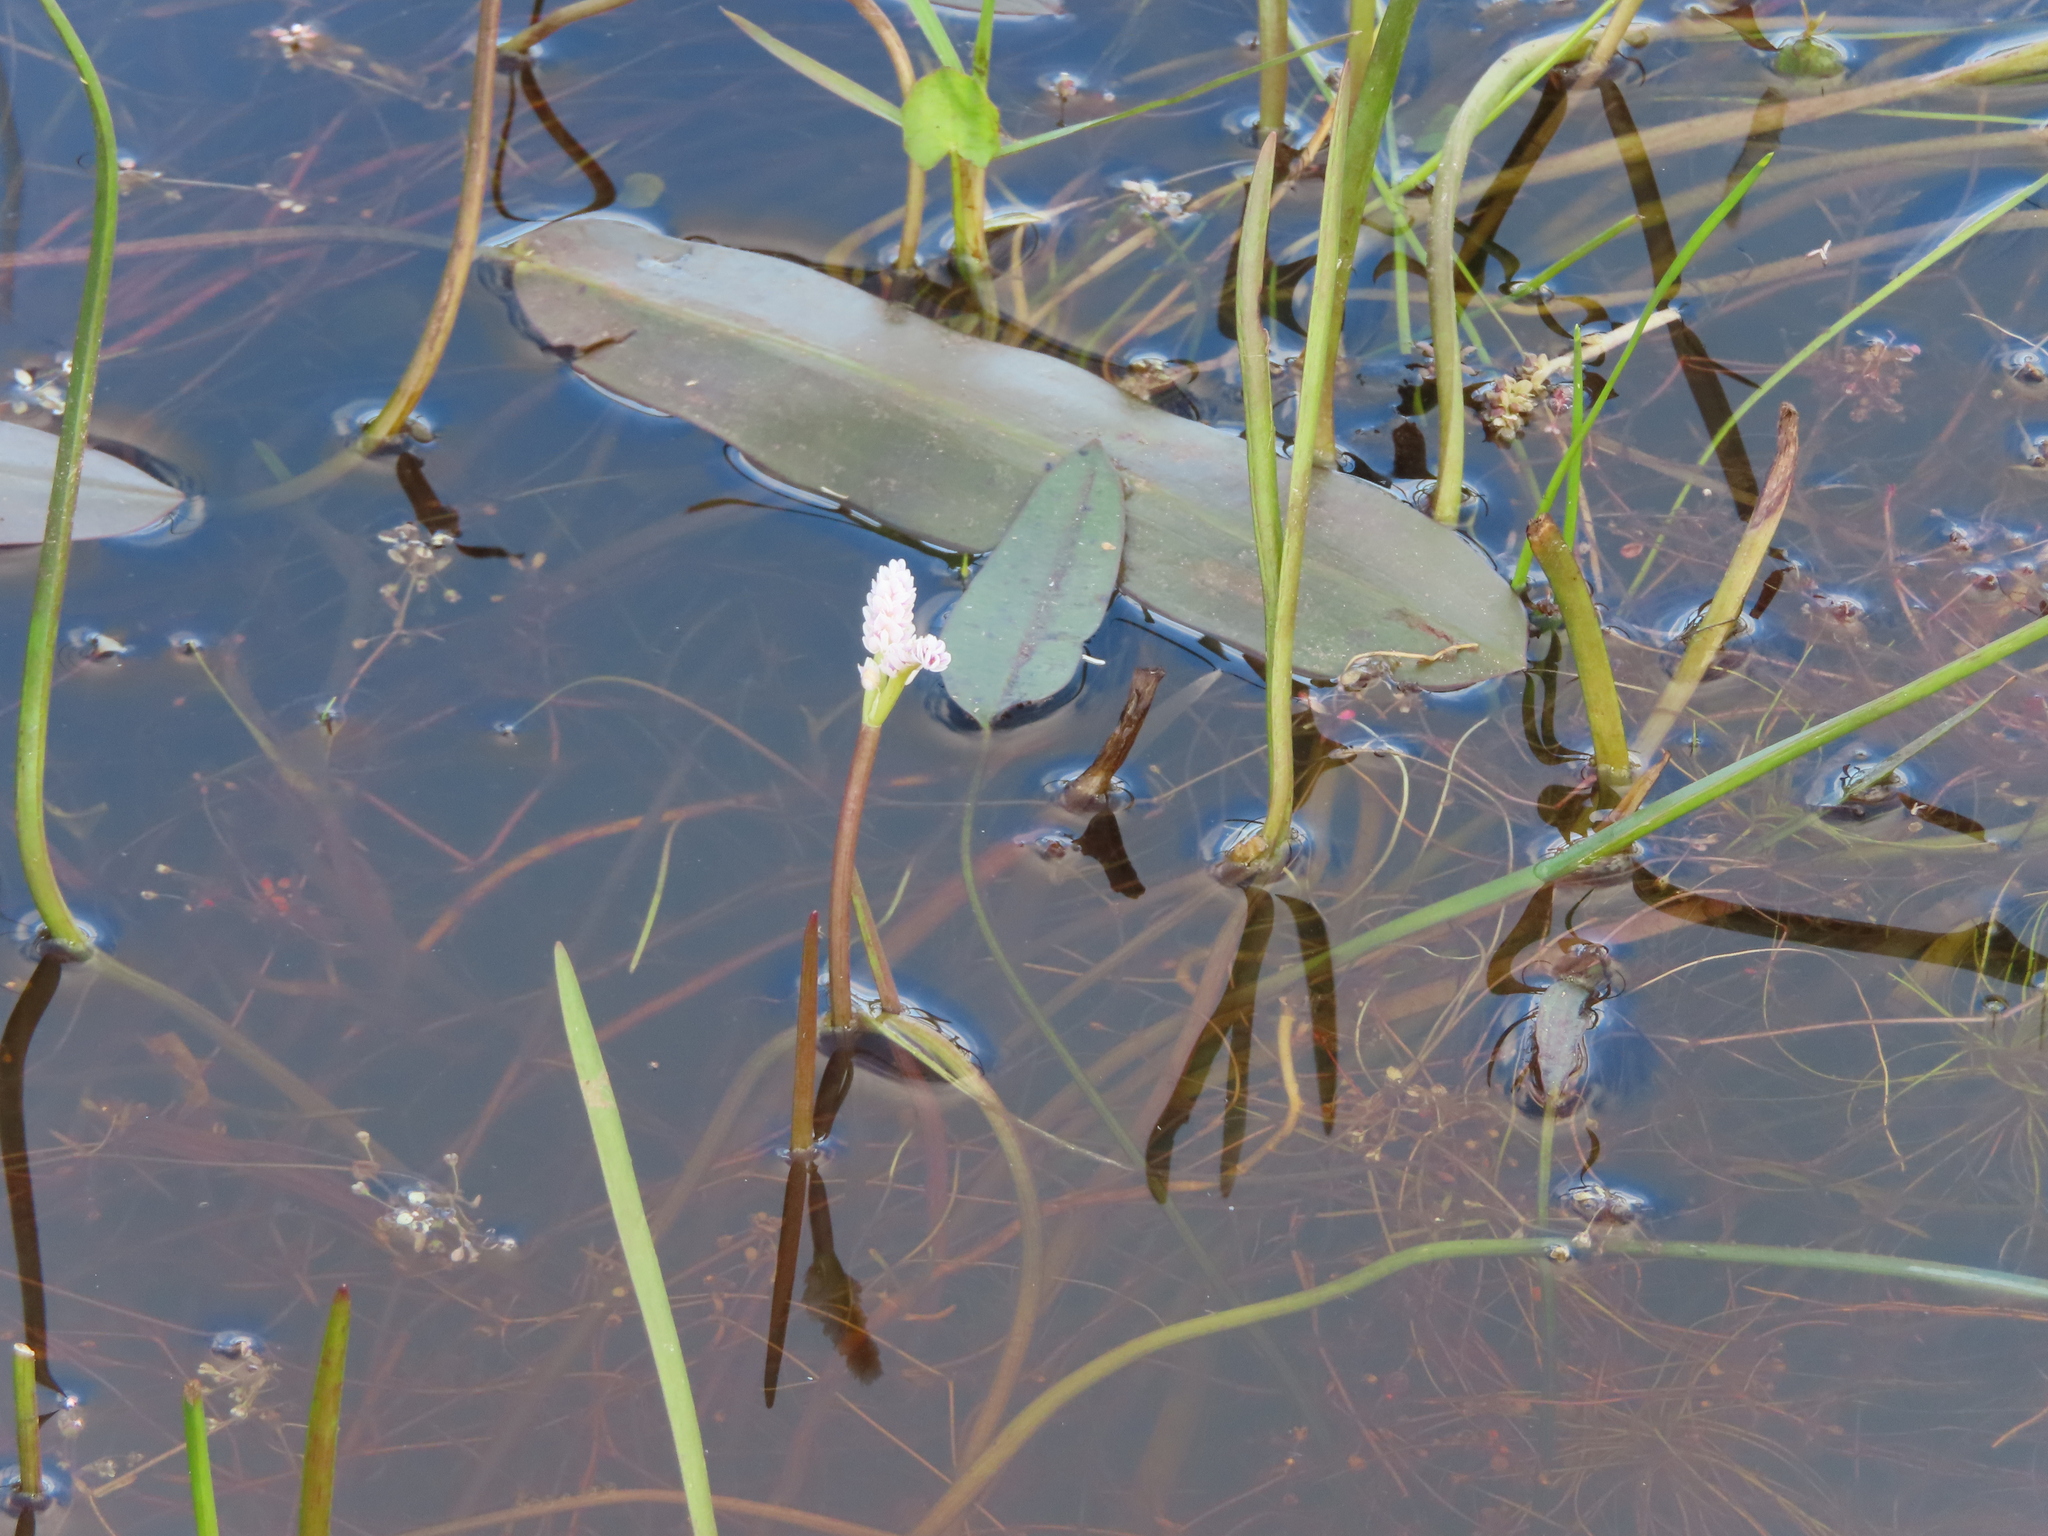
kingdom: Plantae
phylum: Tracheophyta
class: Liliopsida
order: Alismatales
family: Aponogetonaceae
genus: Aponogeton
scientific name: Aponogeton junceus
